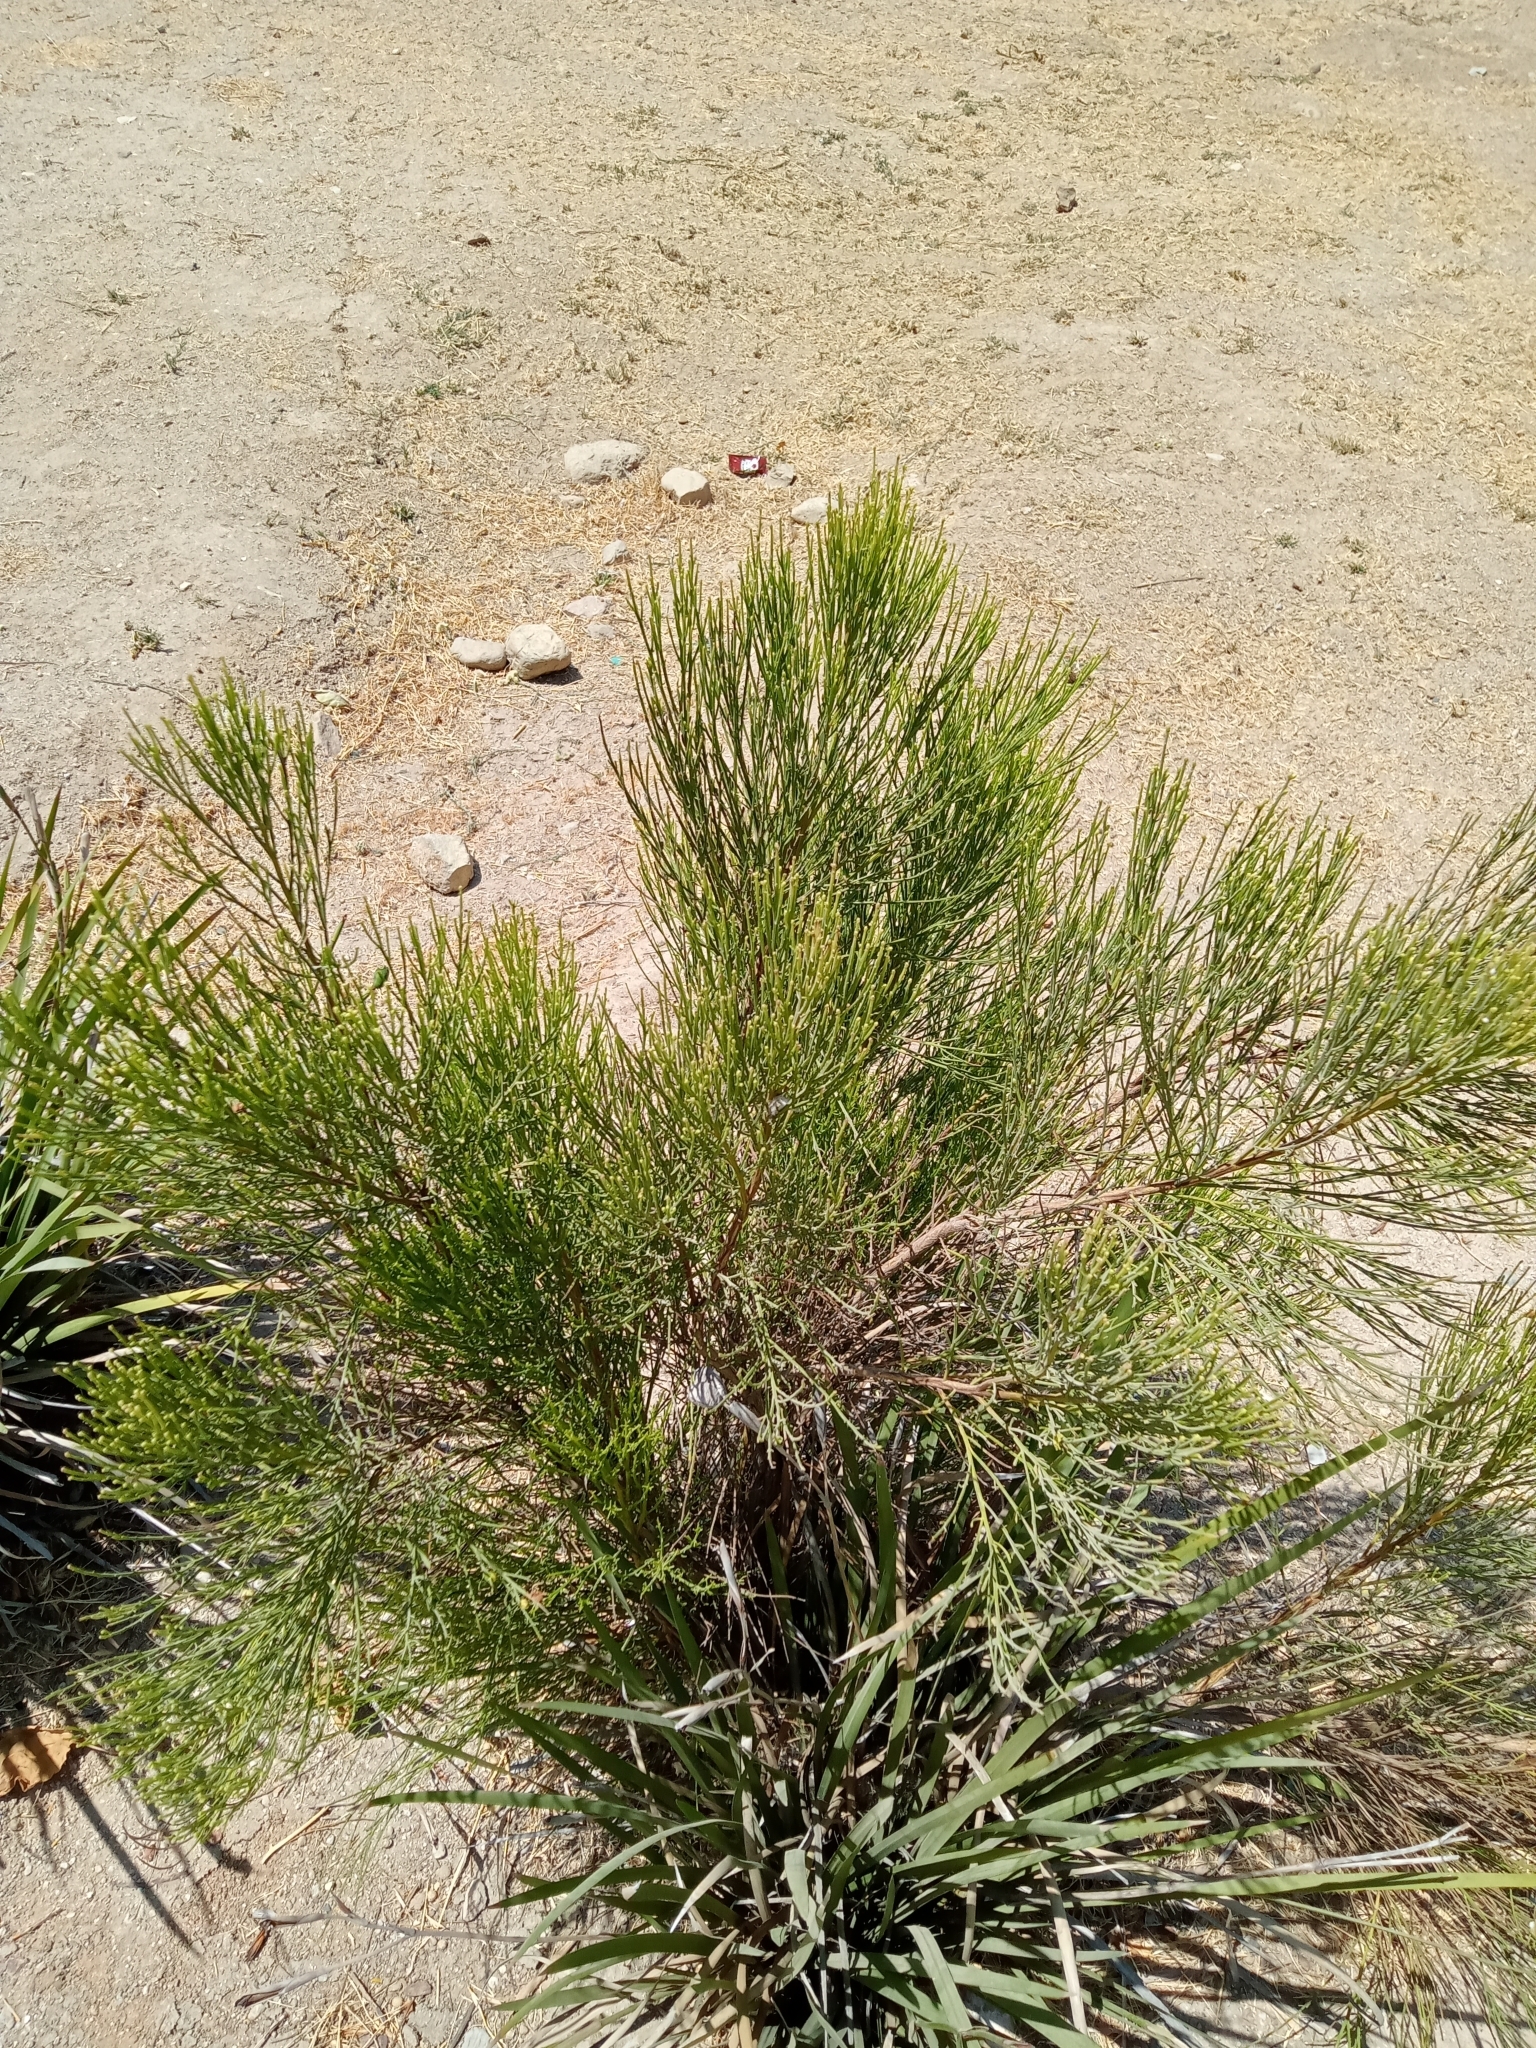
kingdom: Plantae
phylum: Tracheophyta
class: Magnoliopsida
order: Asterales
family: Asteraceae
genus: Baccharis
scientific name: Baccharis sarothroides
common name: Desert-broom
